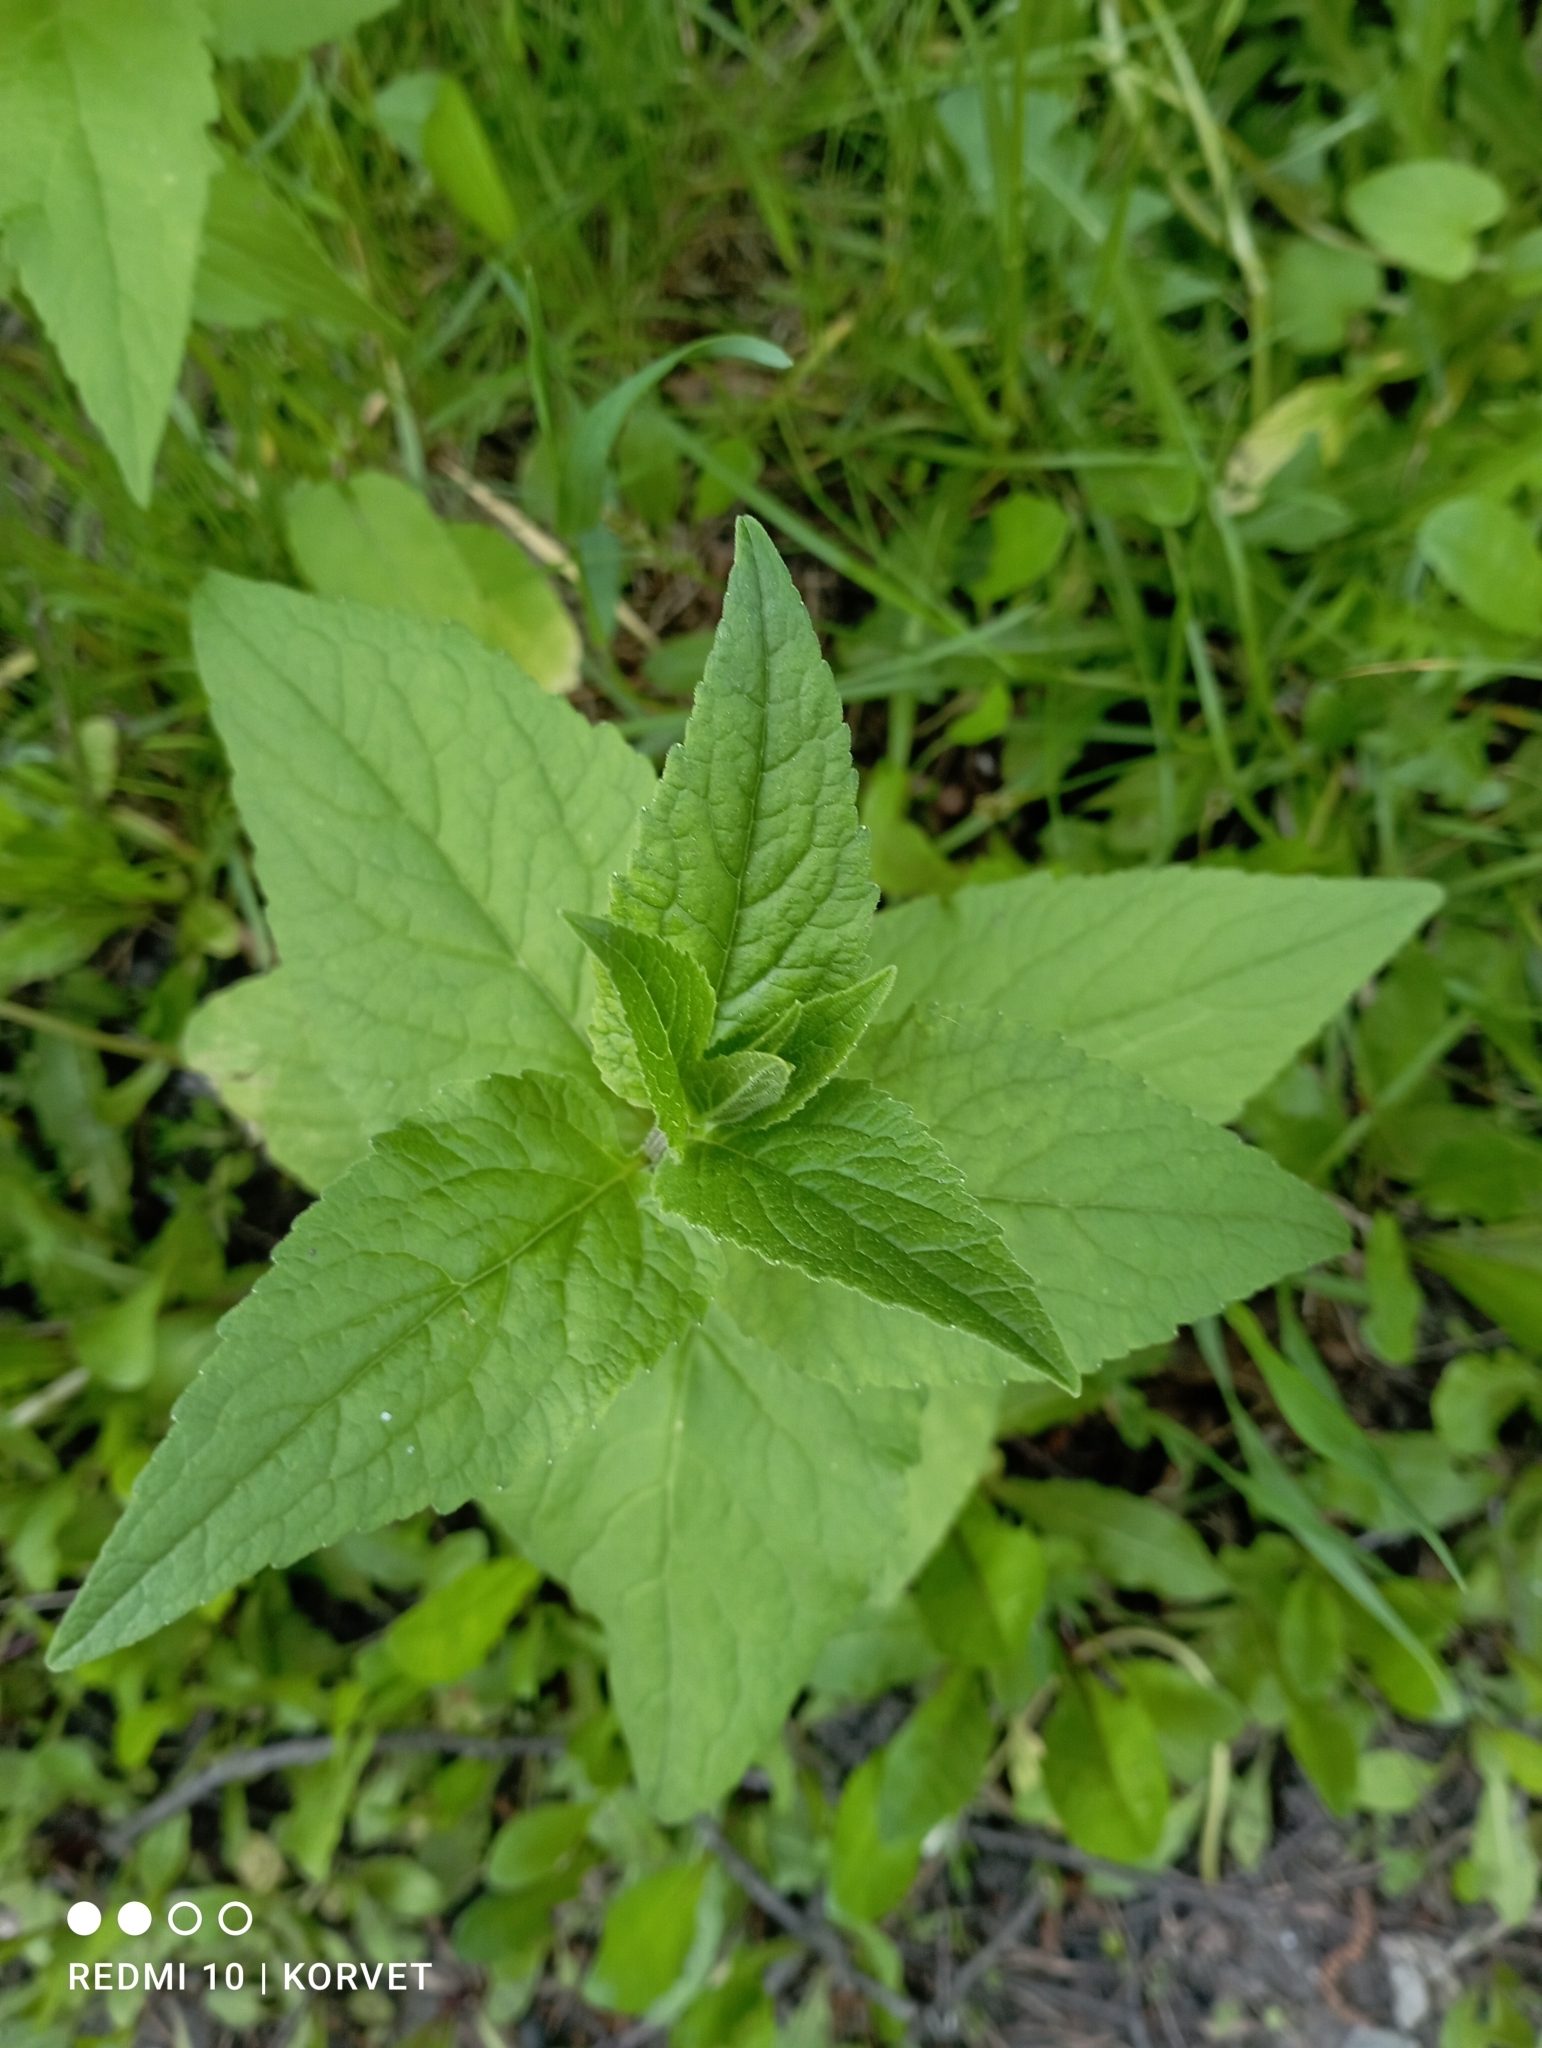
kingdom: Plantae
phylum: Tracheophyta
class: Magnoliopsida
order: Asterales
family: Campanulaceae
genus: Campanula
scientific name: Campanula rapunculoides
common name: Creeping bellflower
